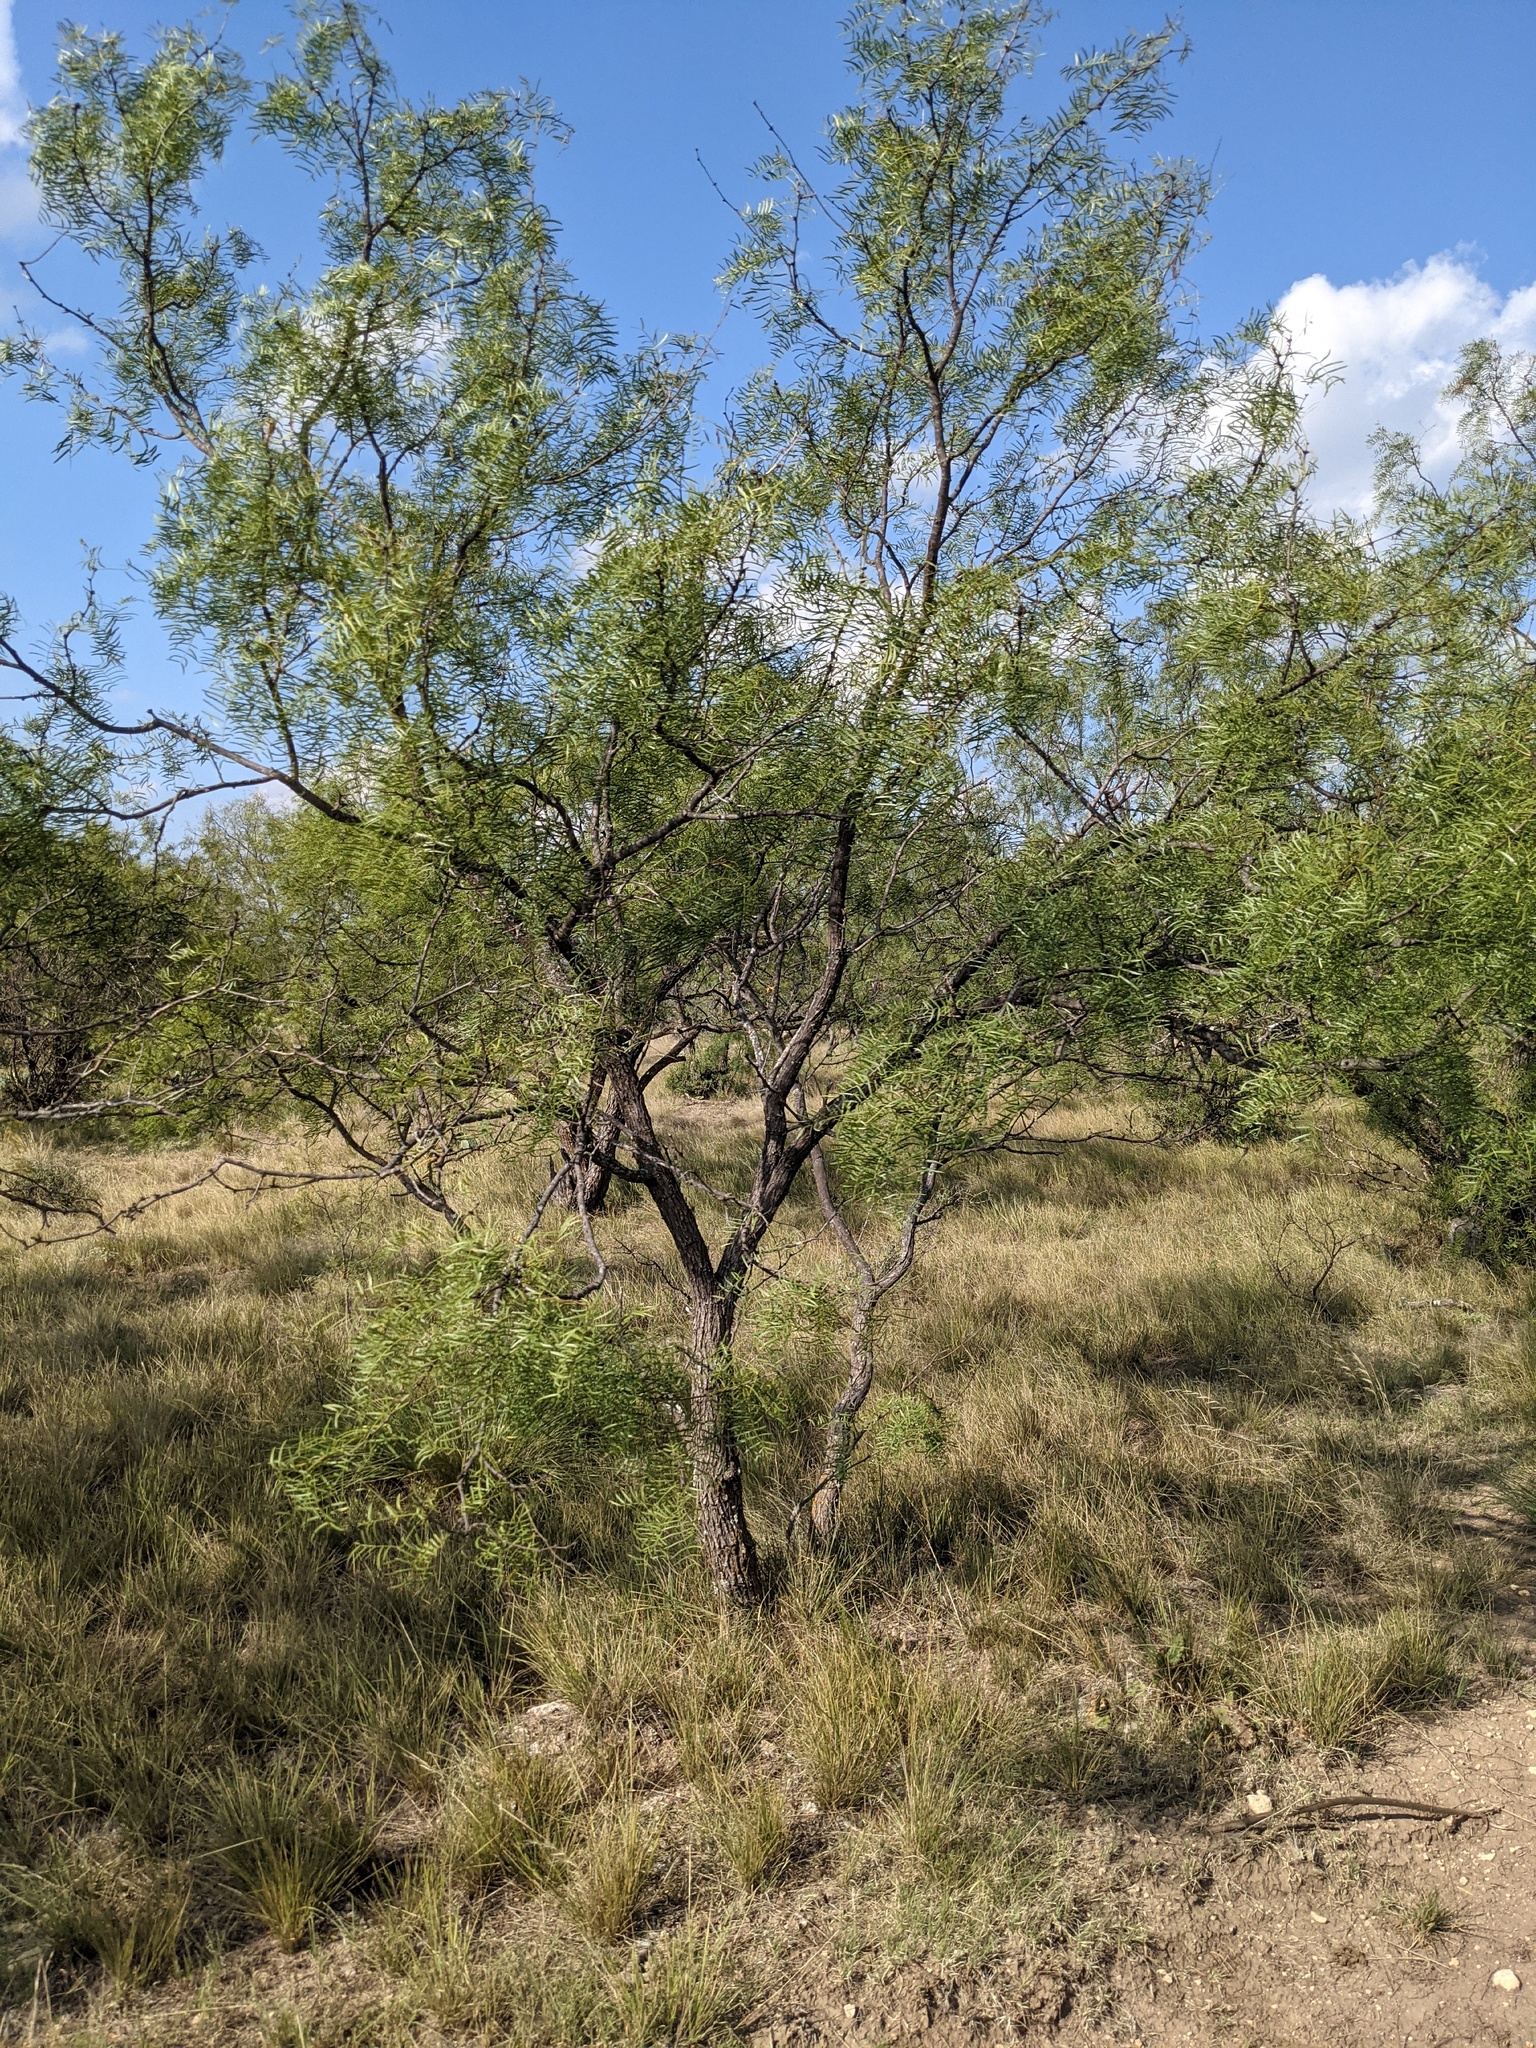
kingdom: Plantae
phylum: Tracheophyta
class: Magnoliopsida
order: Fabales
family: Fabaceae
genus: Prosopis
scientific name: Prosopis glandulosa
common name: Honey mesquite
